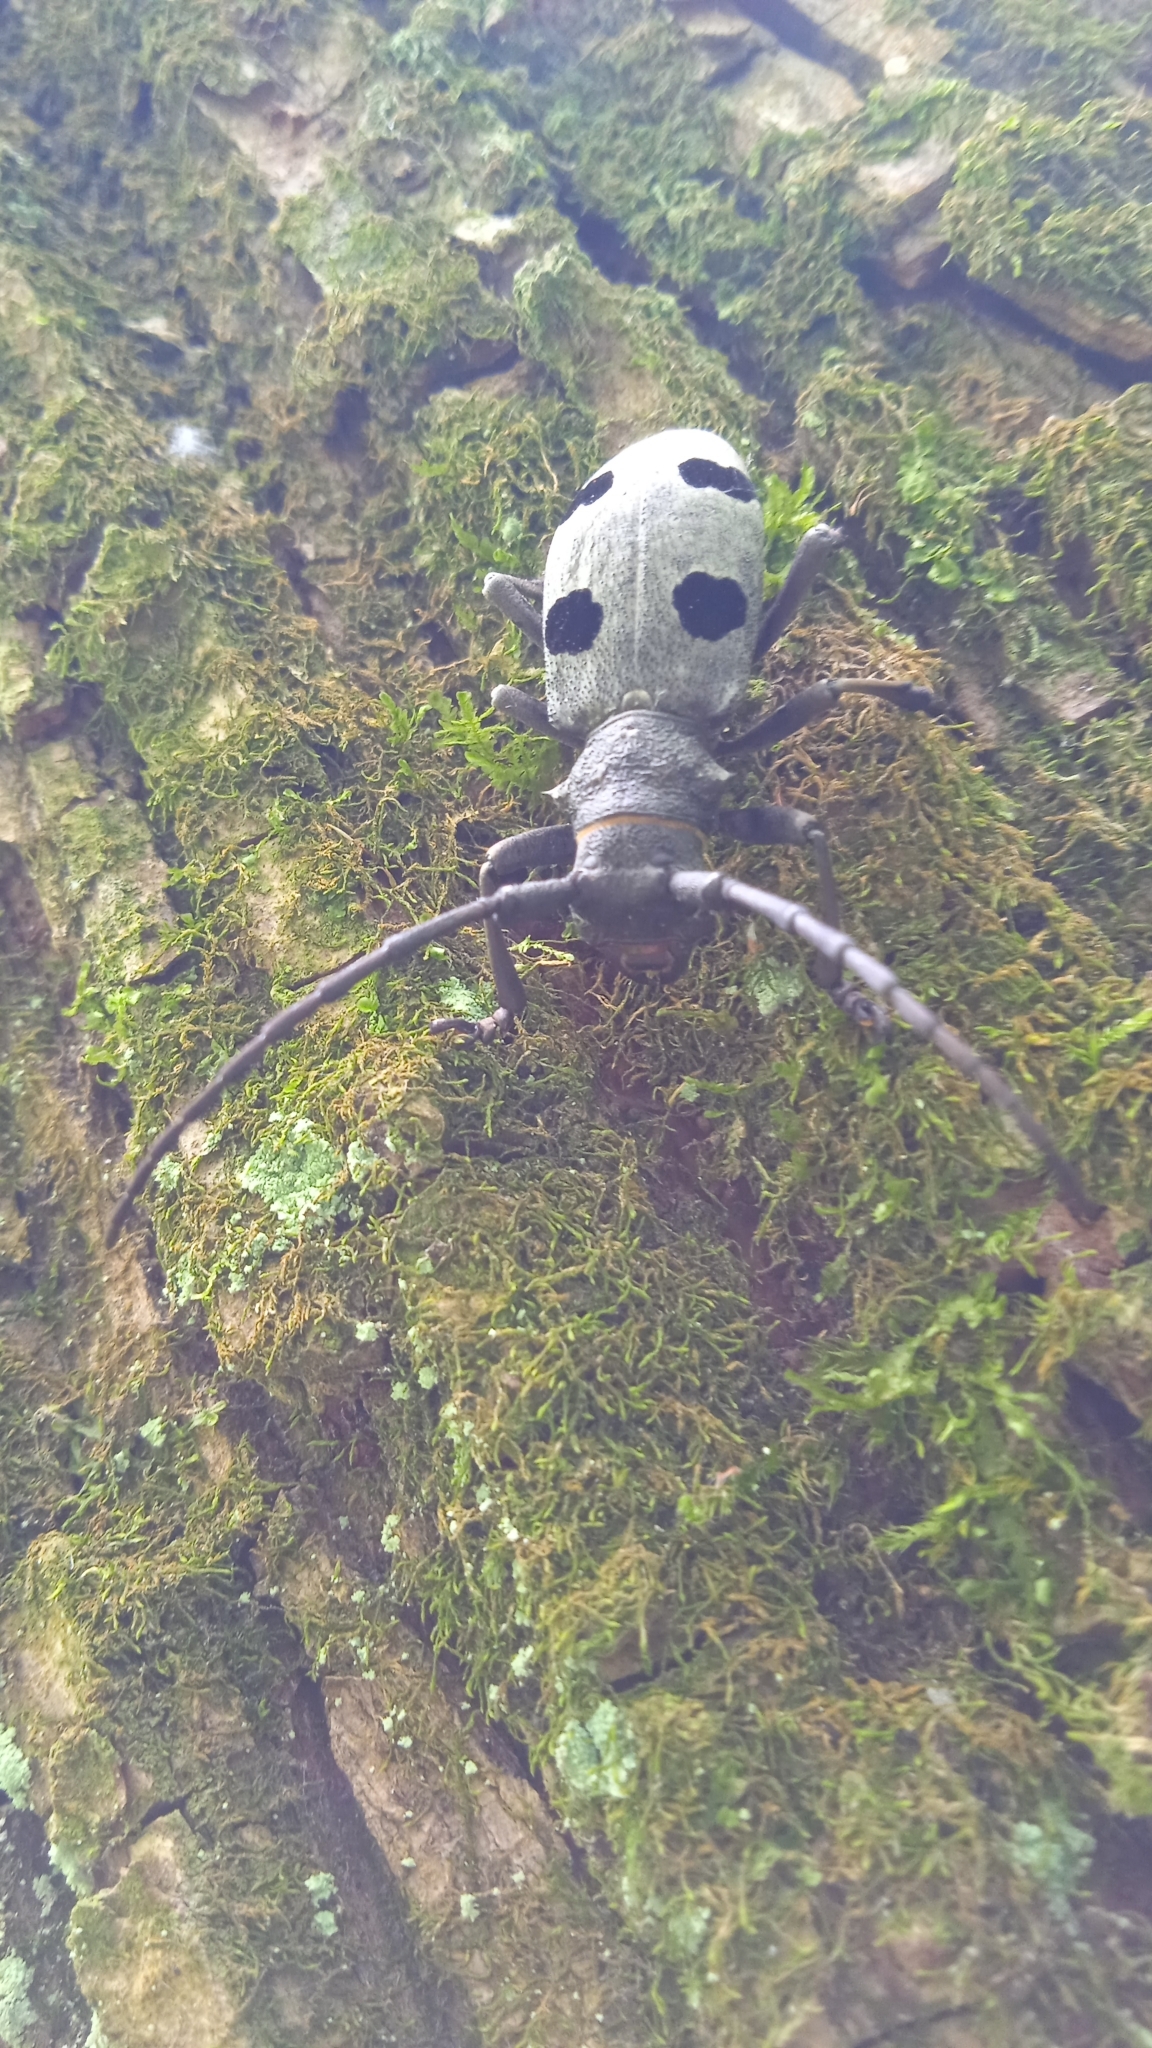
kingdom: Animalia
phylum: Arthropoda
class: Insecta
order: Coleoptera
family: Cerambycidae
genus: Morimus
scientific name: Morimus funereus
